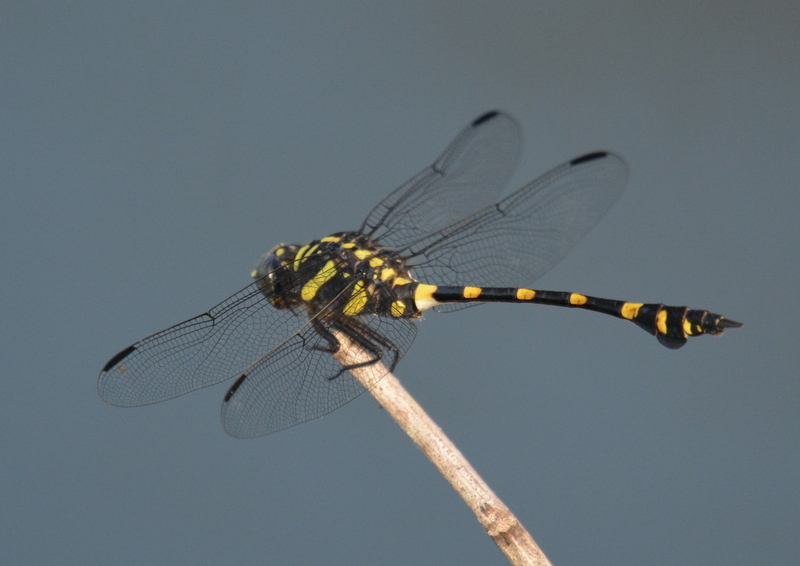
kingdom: Animalia
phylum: Arthropoda
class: Insecta
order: Odonata
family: Gomphidae
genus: Ictinogomphus
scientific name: Ictinogomphus decoratus
